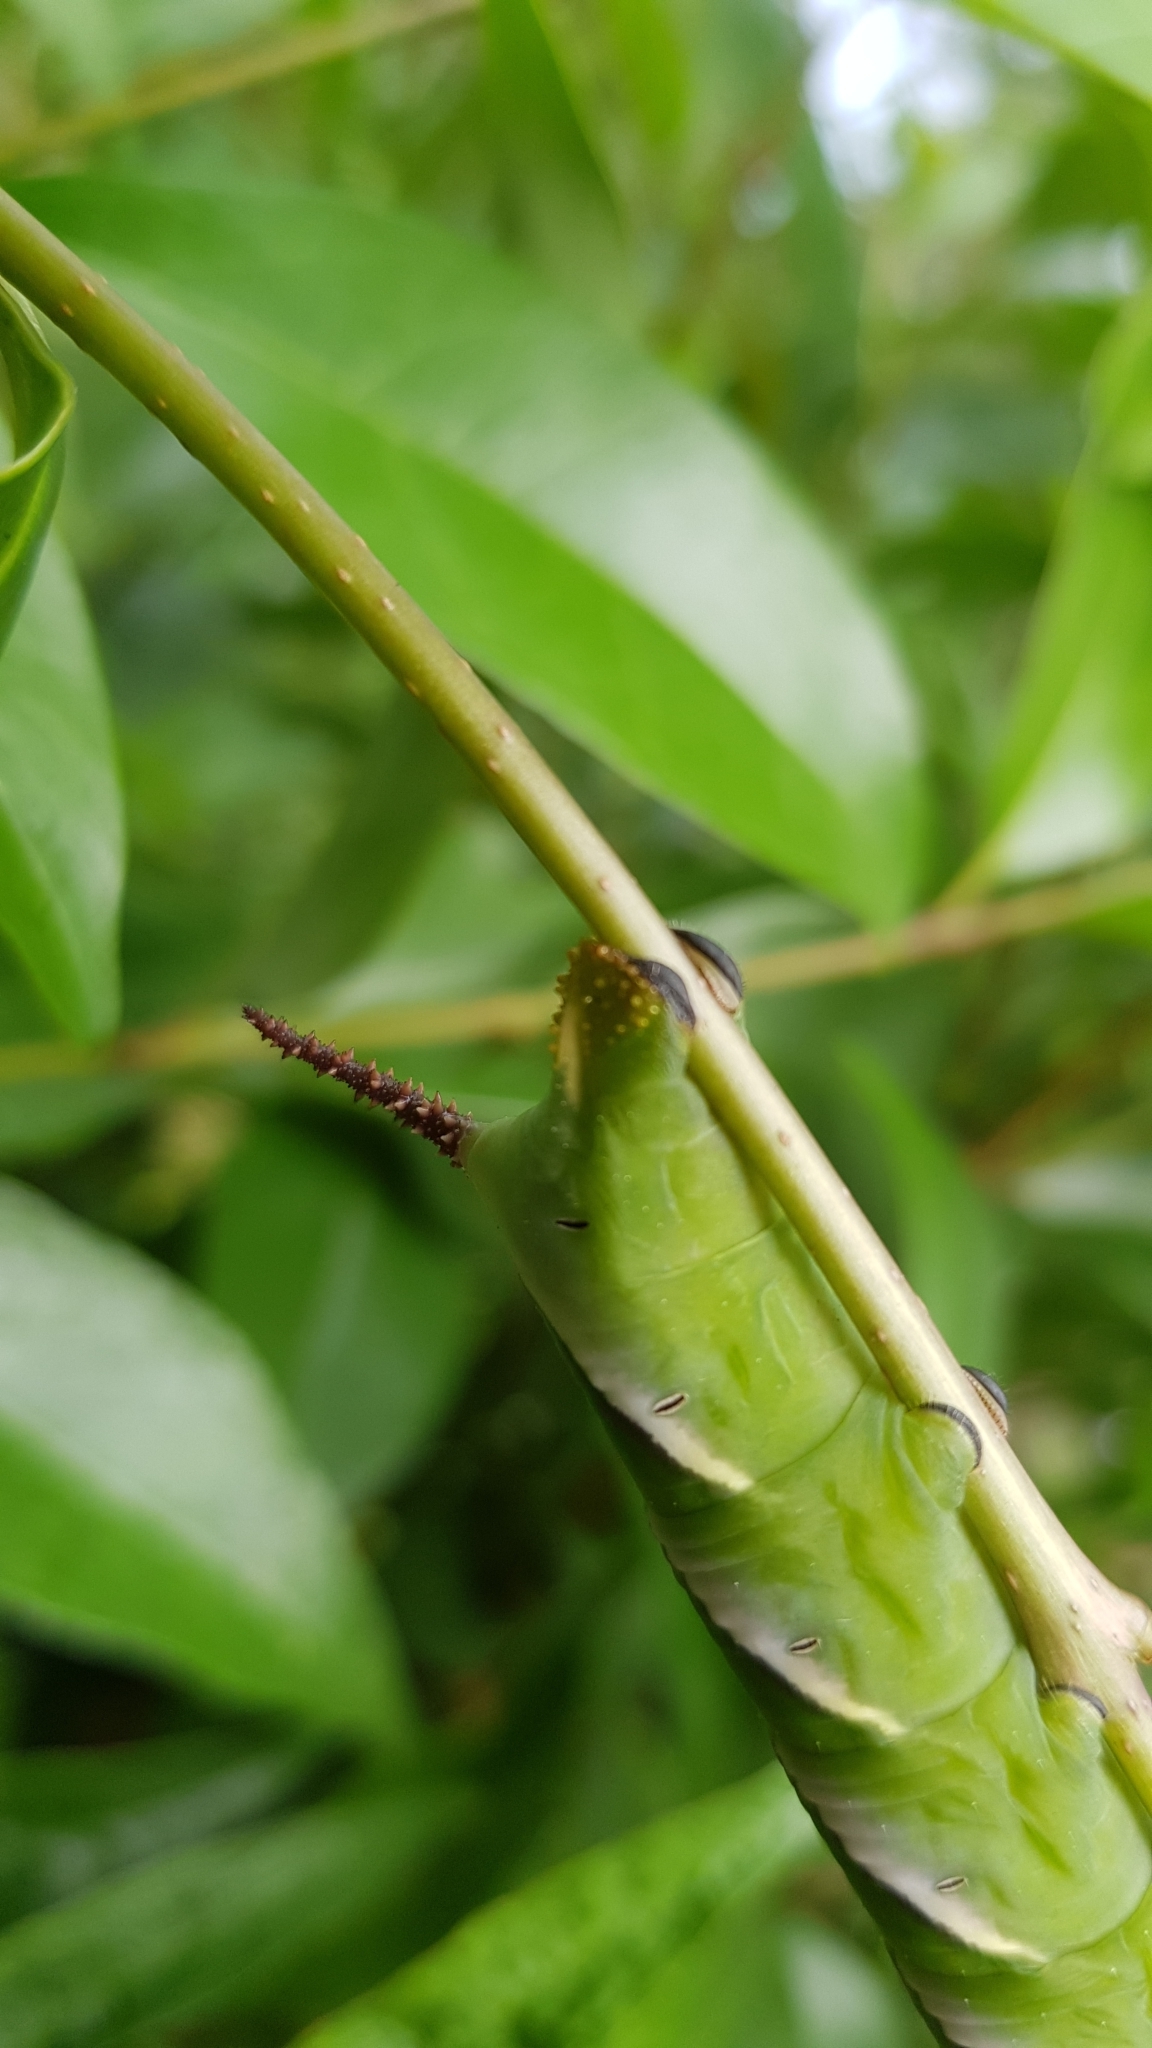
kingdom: Animalia
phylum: Arthropoda
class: Insecta
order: Lepidoptera
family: Sphingidae
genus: Psilogramma
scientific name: Psilogramma casuarinae
